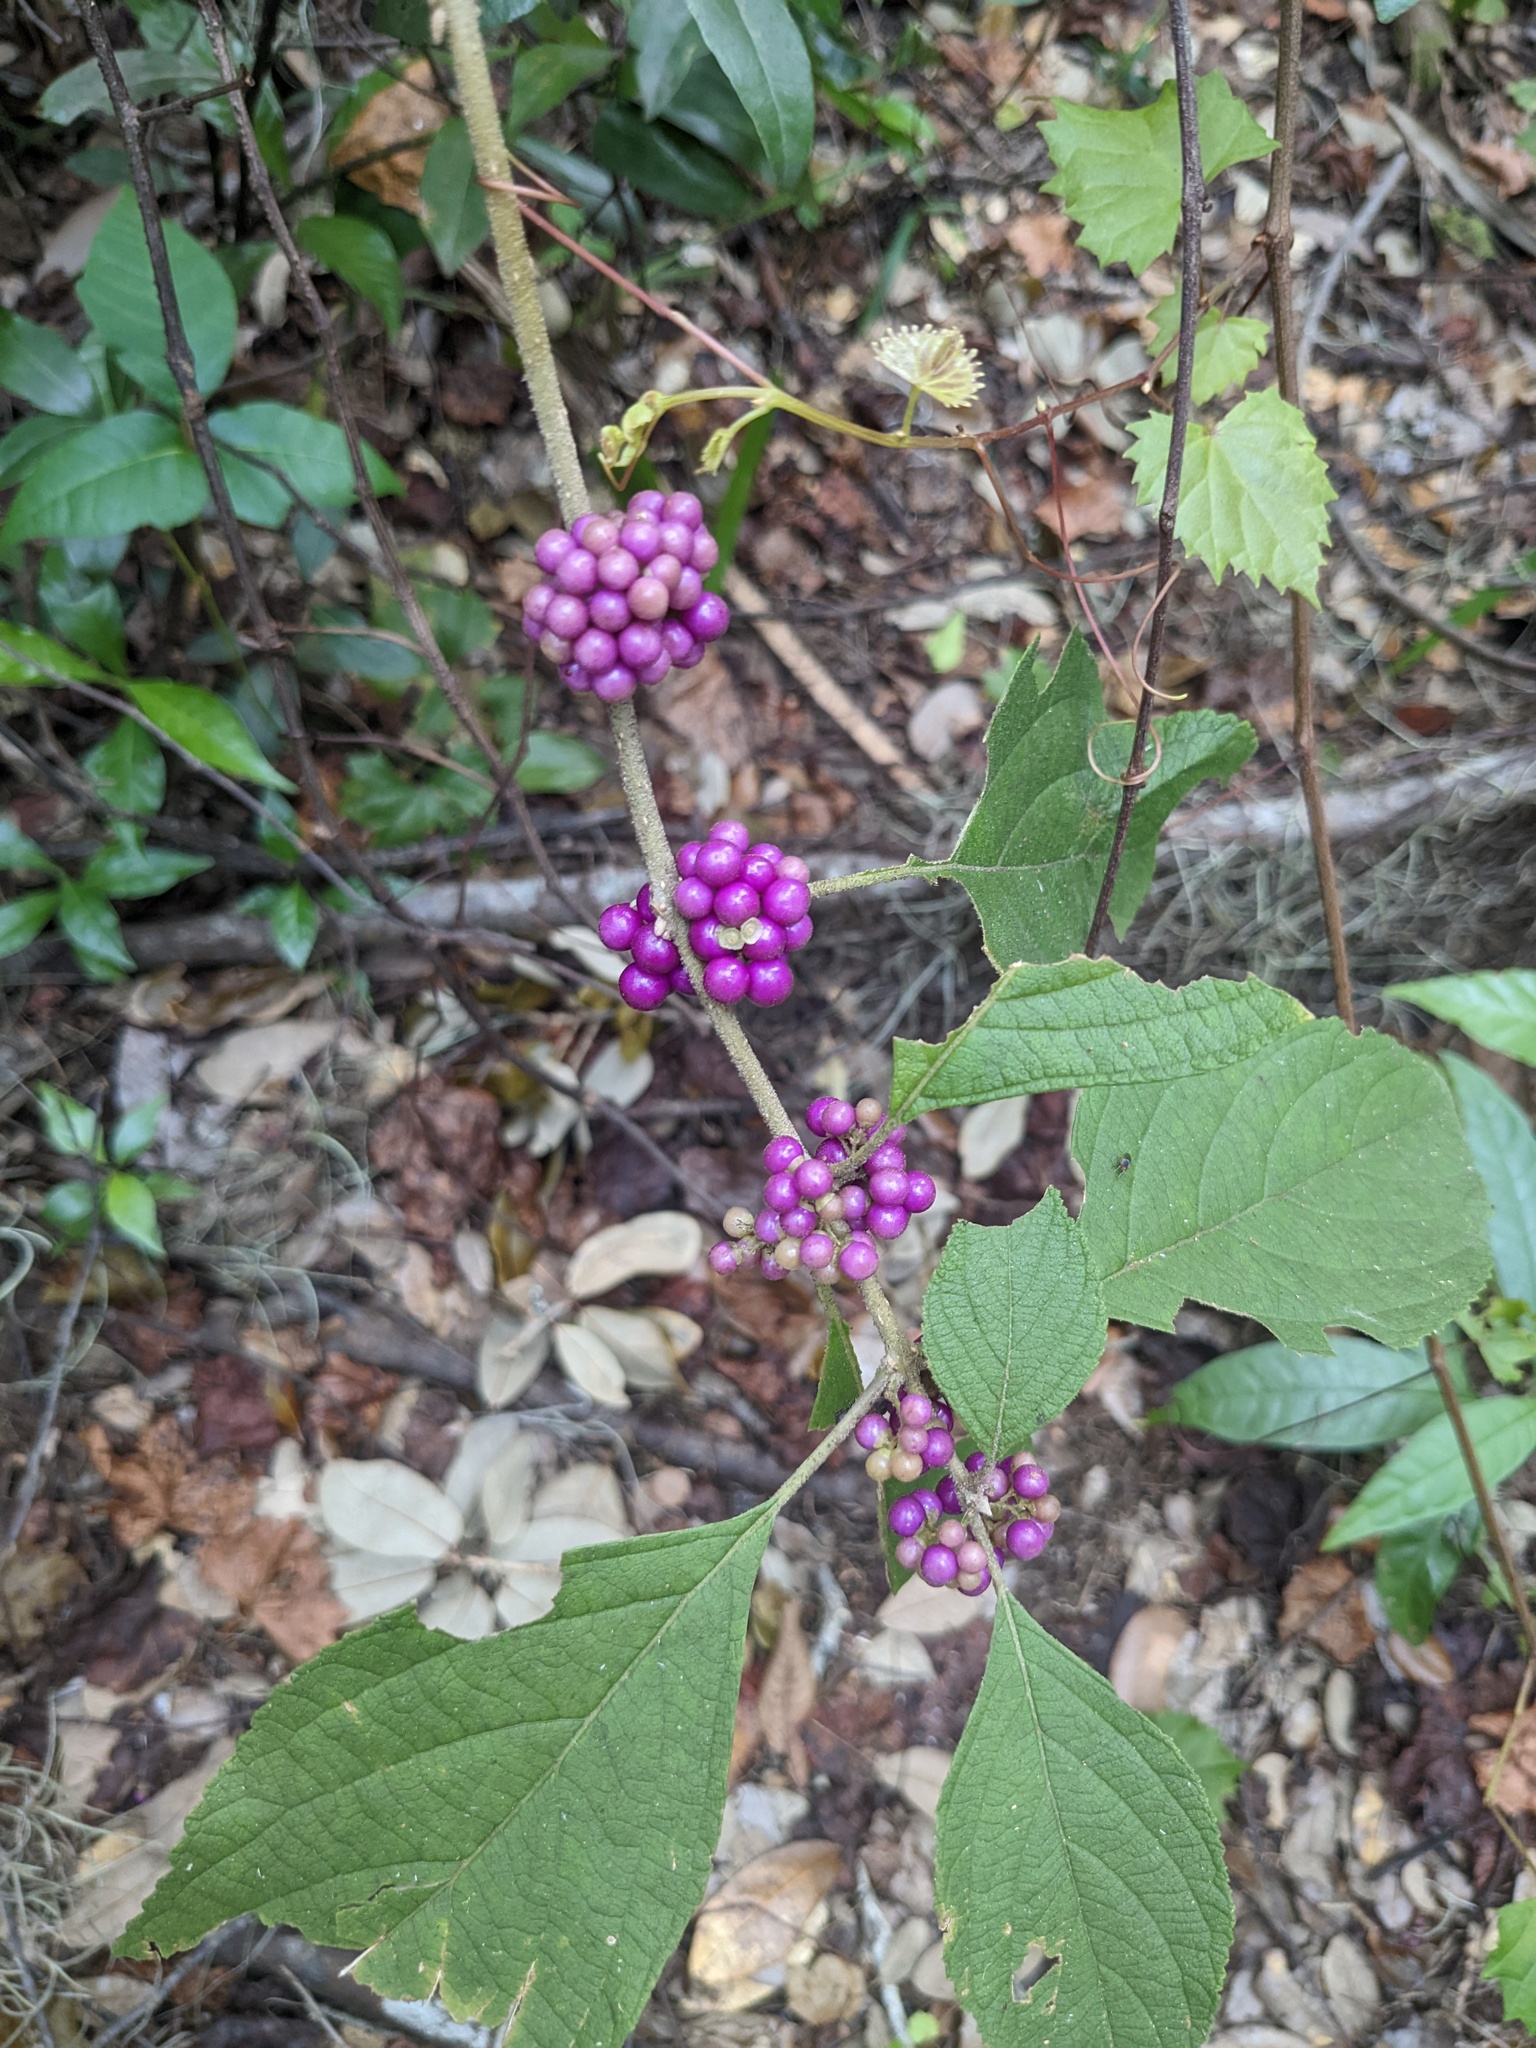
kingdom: Plantae
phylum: Tracheophyta
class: Magnoliopsida
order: Lamiales
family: Lamiaceae
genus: Callicarpa
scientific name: Callicarpa americana
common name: American beautyberry
